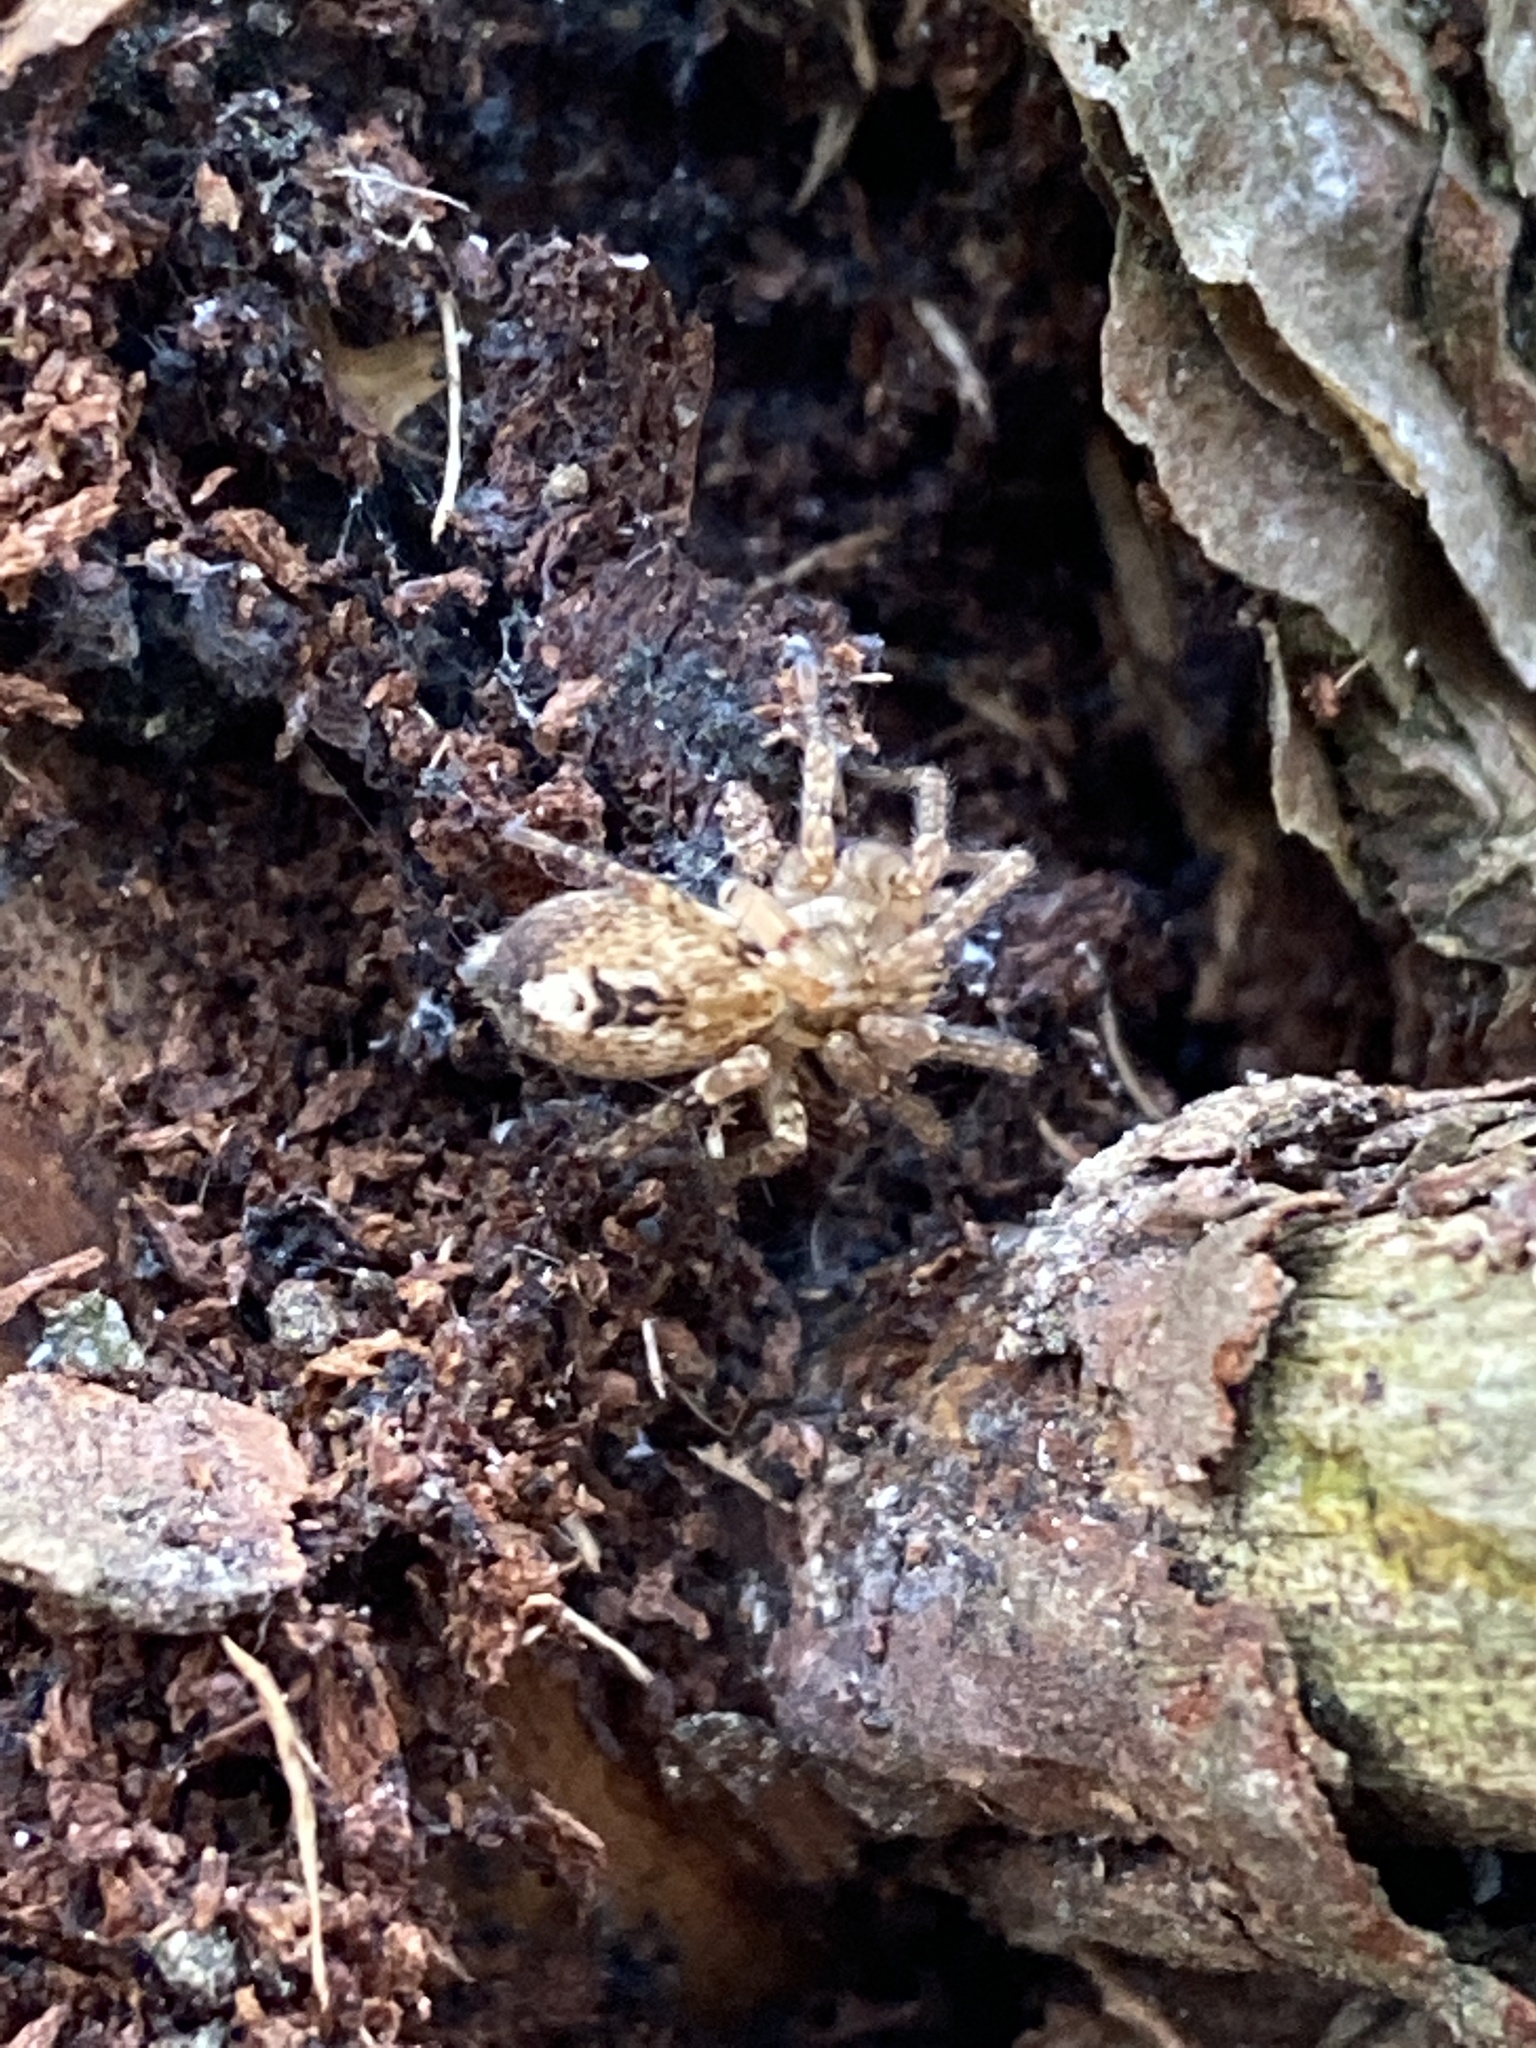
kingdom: Animalia
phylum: Arthropoda
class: Arachnida
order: Araneae
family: Anyphaenidae
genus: Anyphaena
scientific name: Anyphaena accentuata
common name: Buzzing spider
